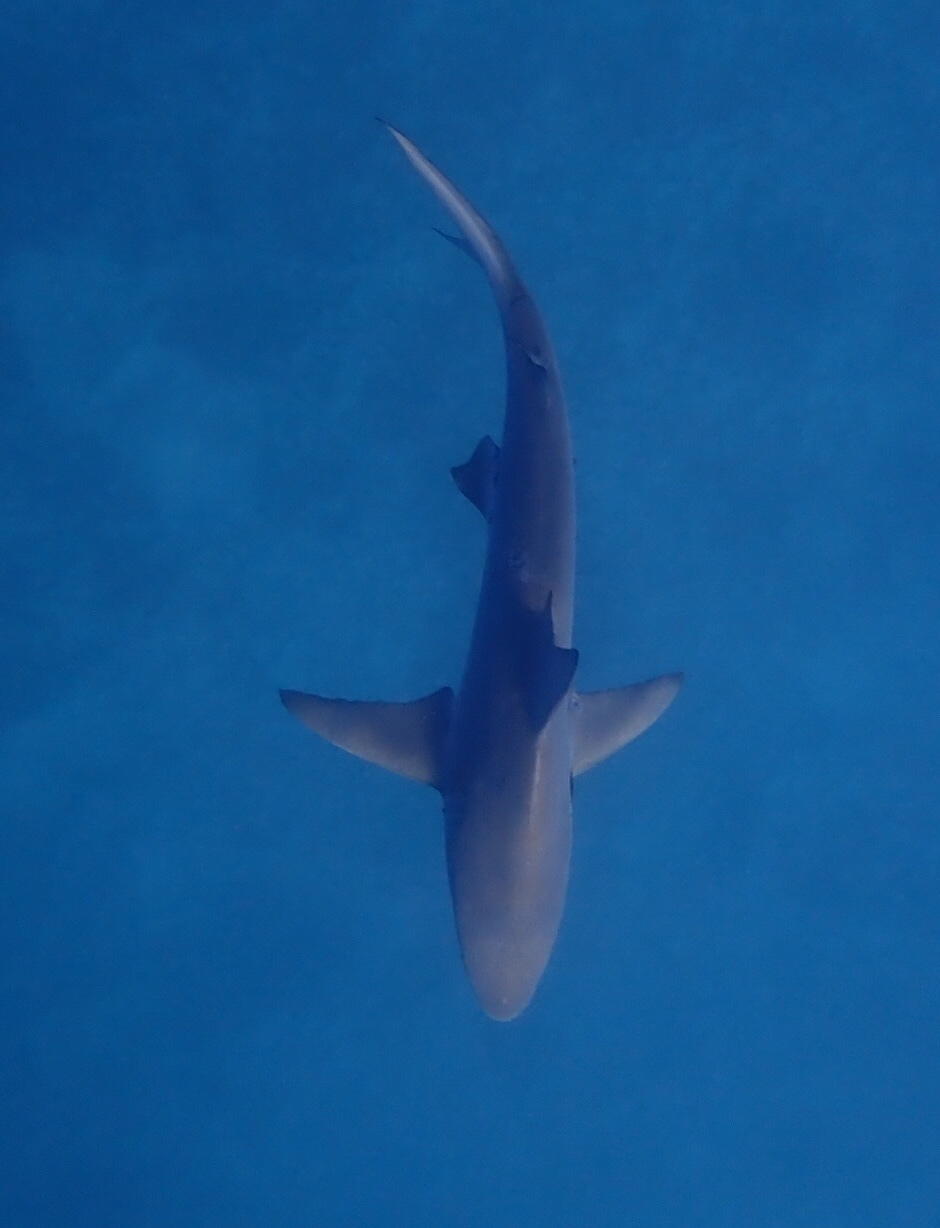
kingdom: Animalia
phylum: Chordata
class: Elasmobranchii
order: Carcharhiniformes
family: Carcharhinidae
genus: Carcharhinus
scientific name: Carcharhinus limbatus
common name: Blacktip shark
